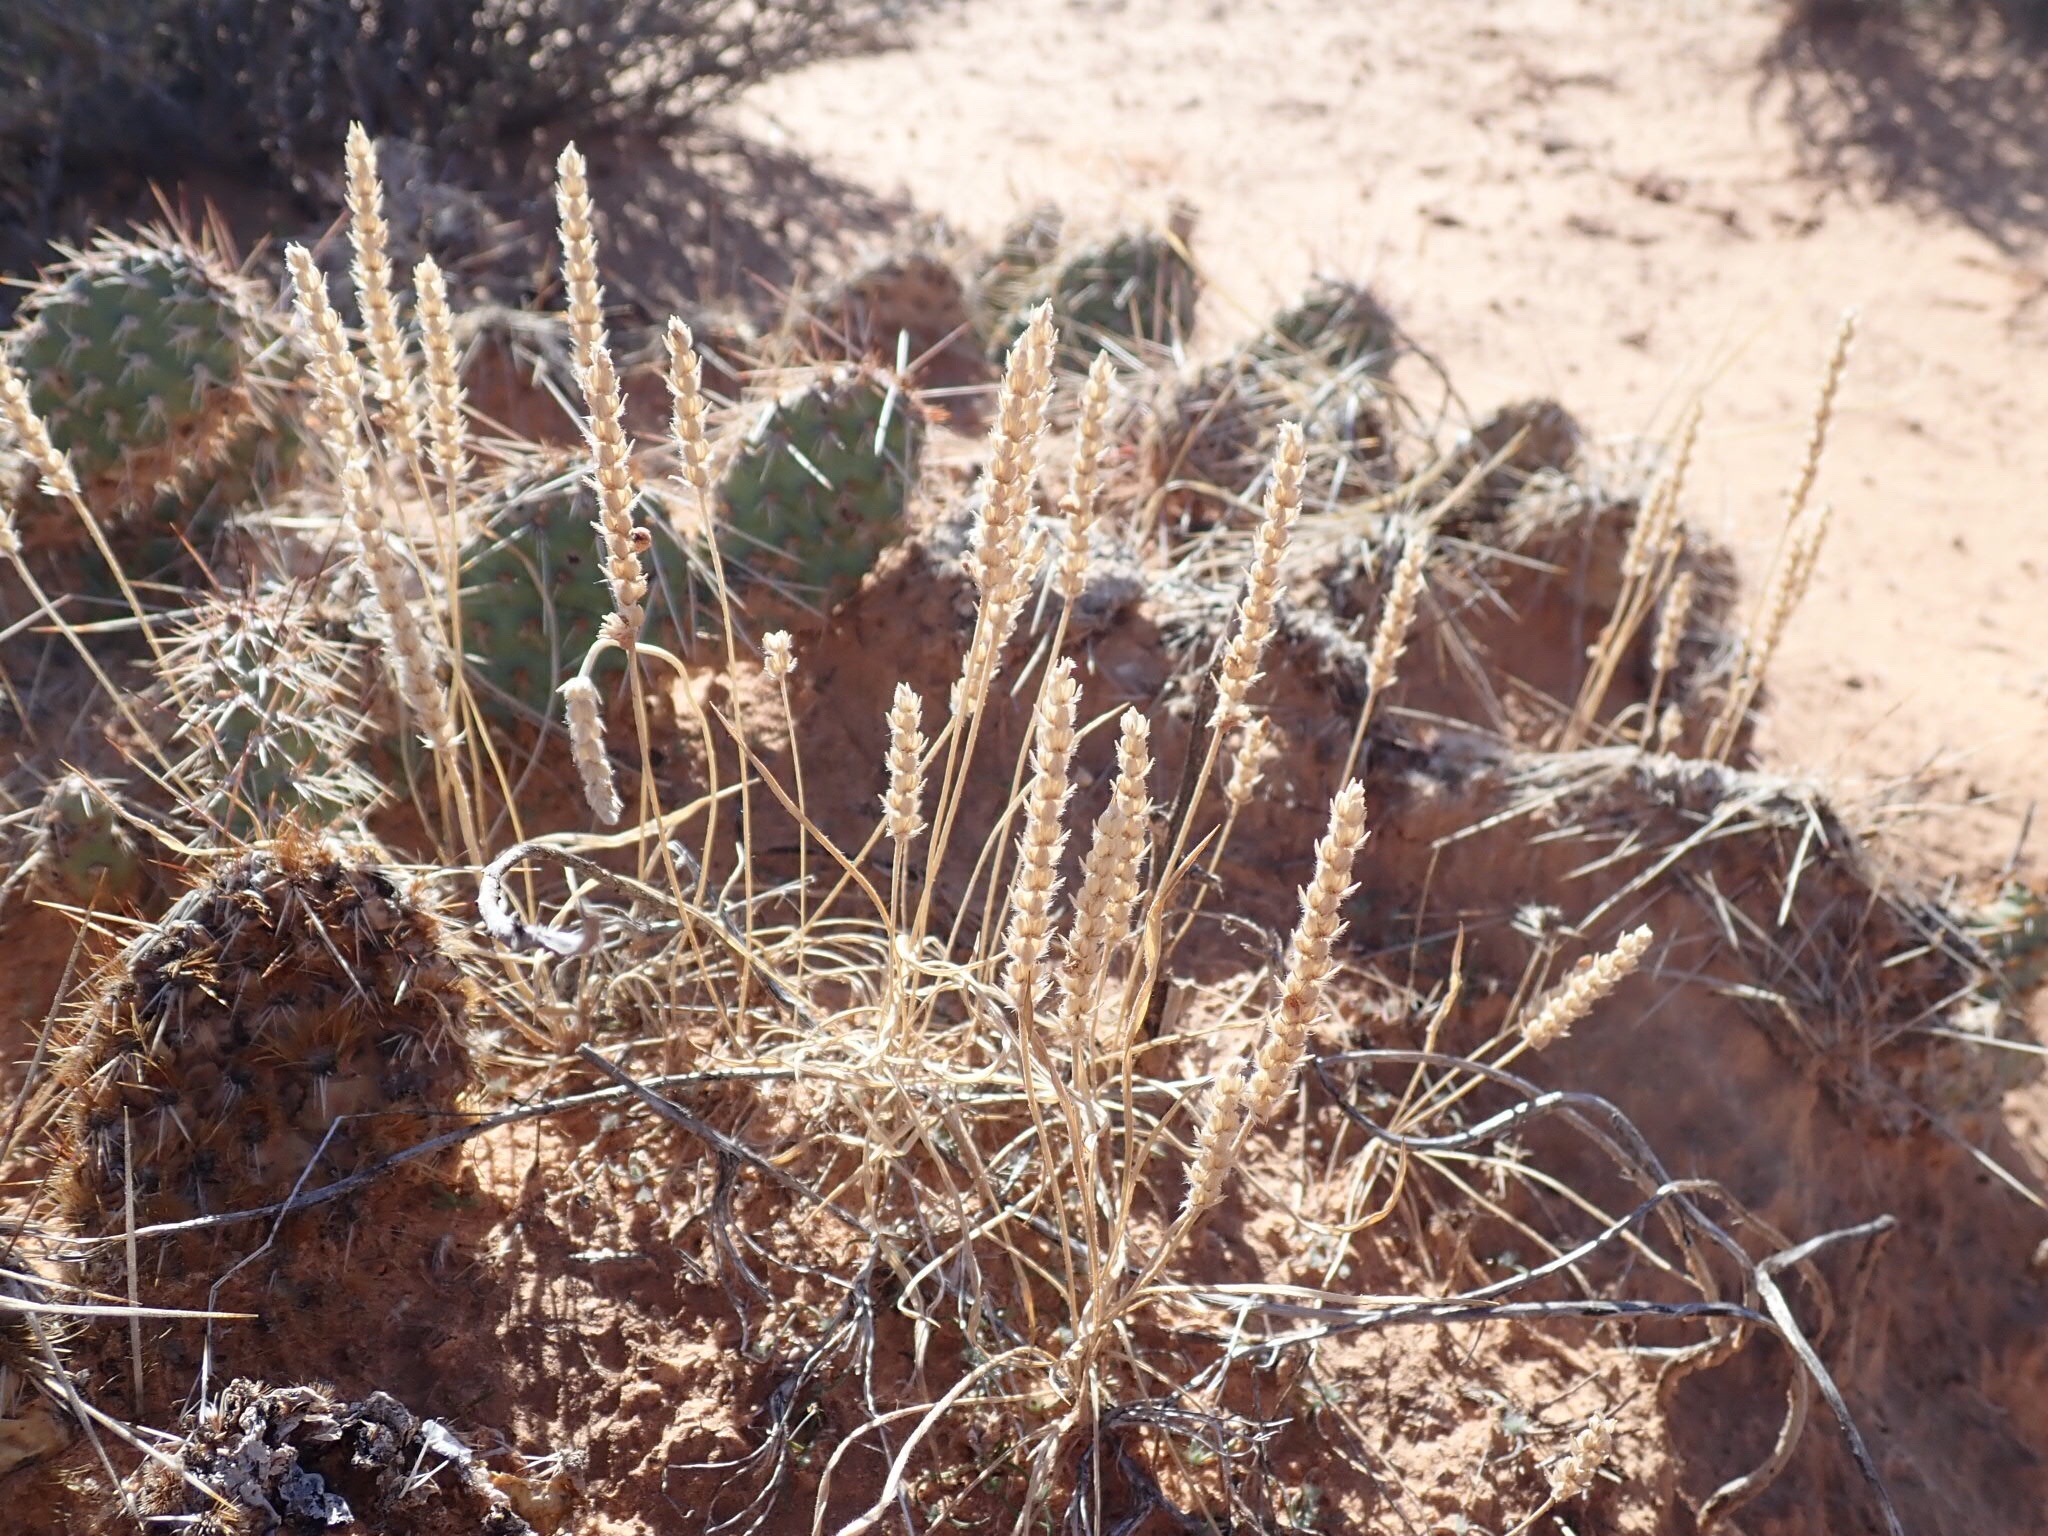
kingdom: Plantae
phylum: Tracheophyta
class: Magnoliopsida
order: Lamiales
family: Plantaginaceae
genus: Plantago
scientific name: Plantago patagonica
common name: Patagonia indian-wheat
